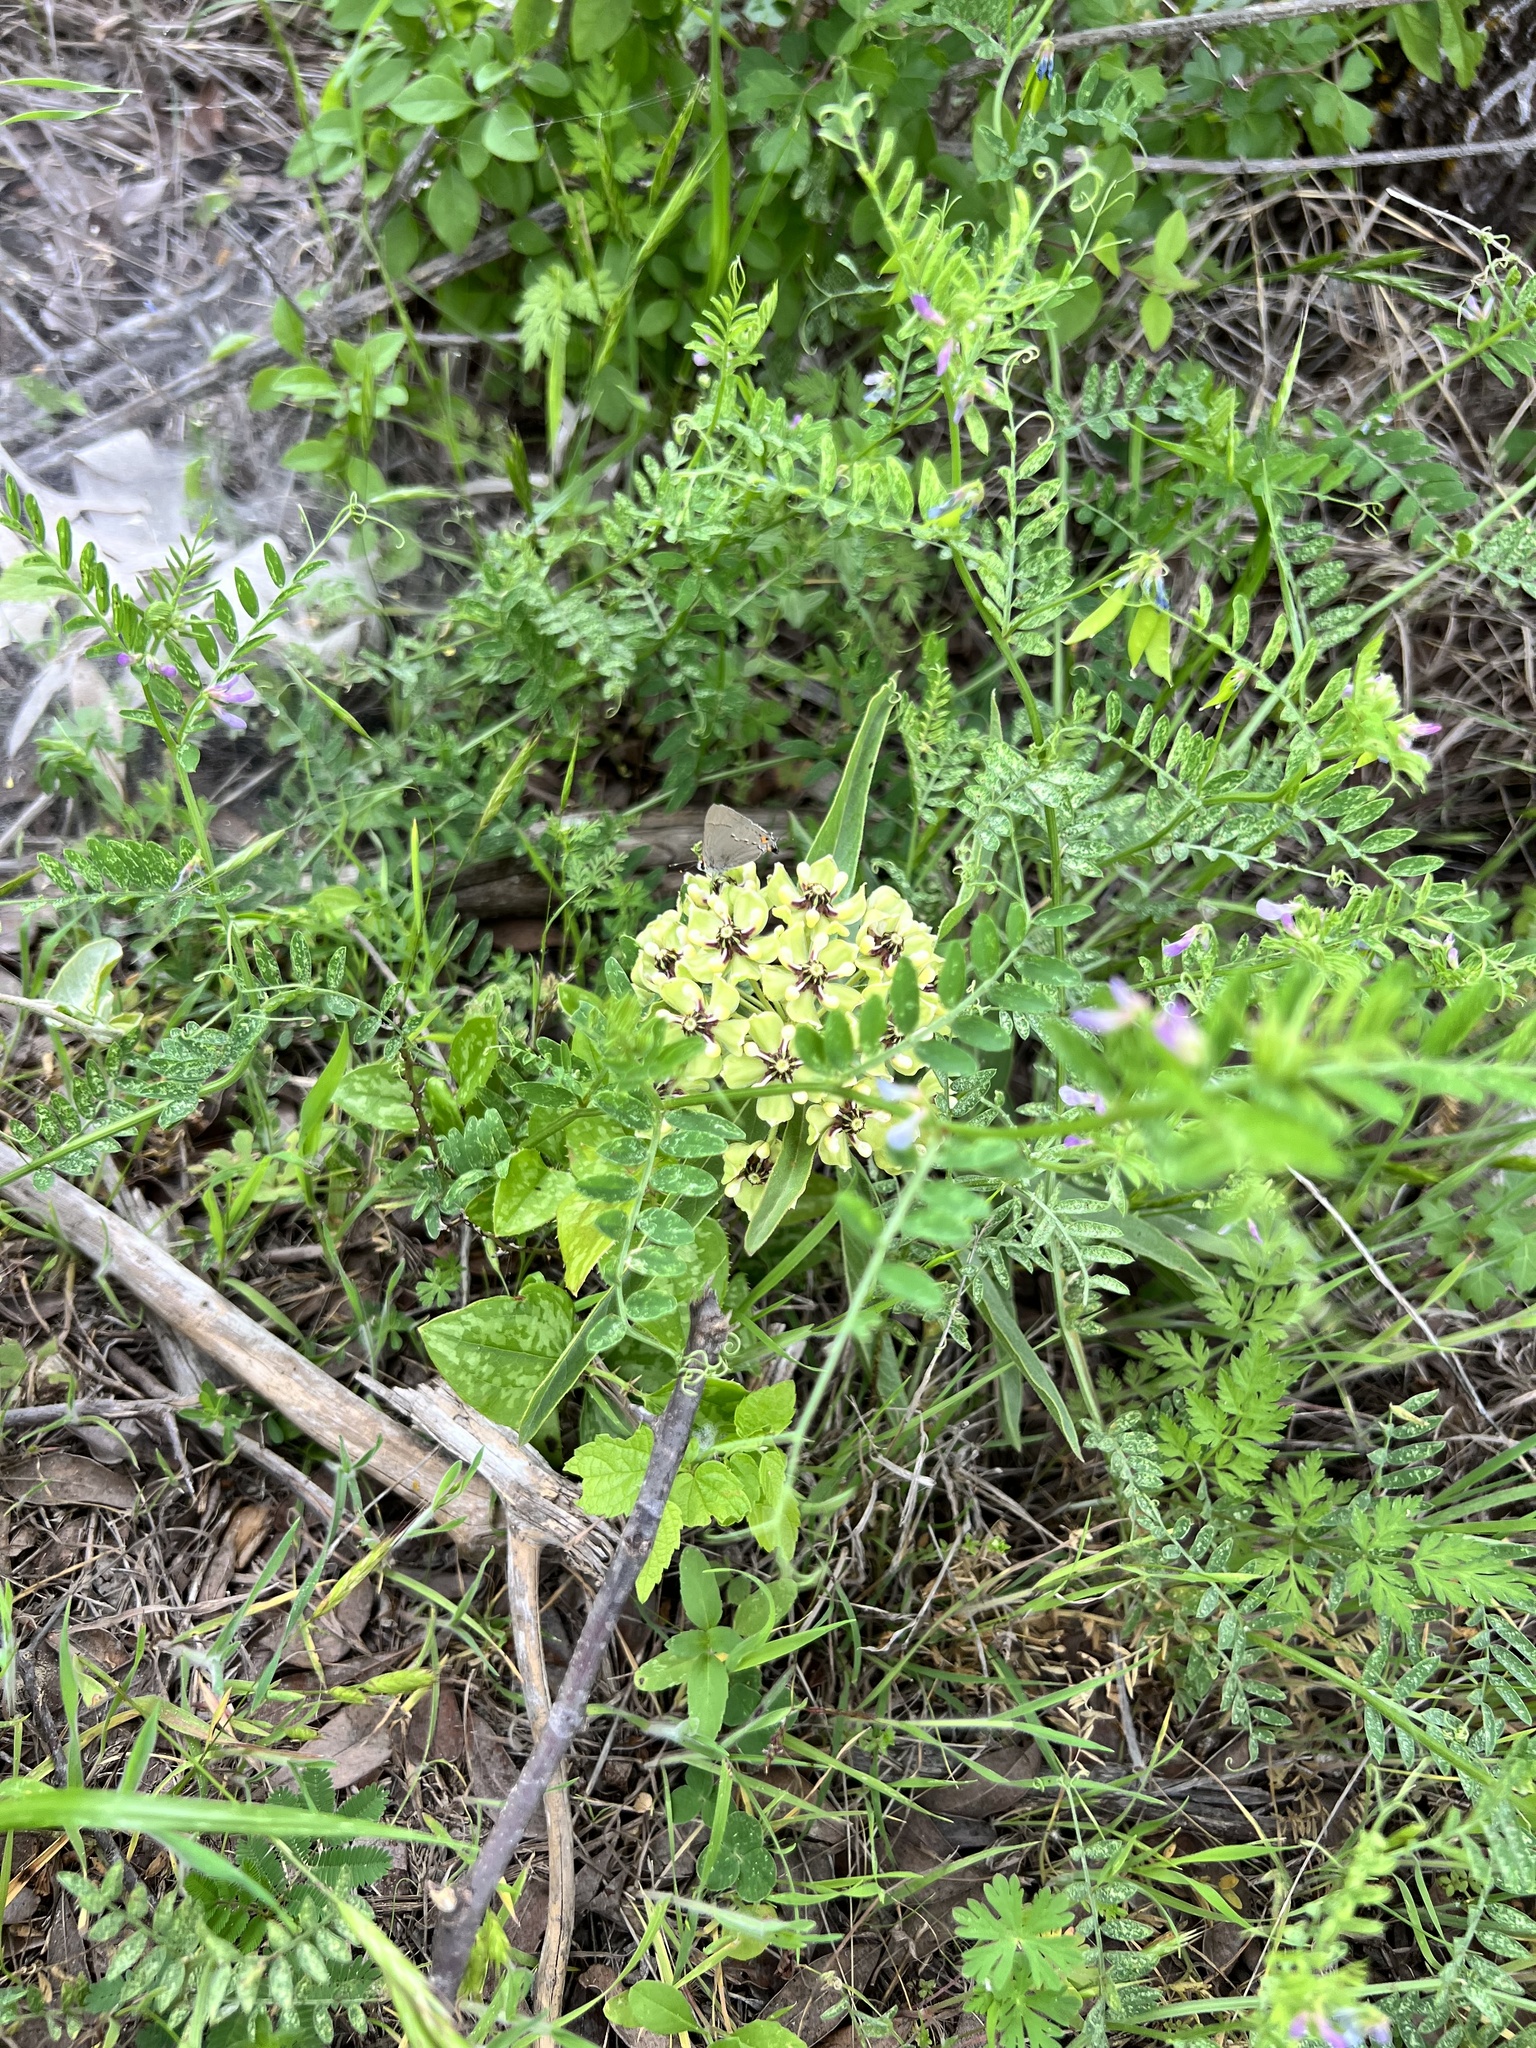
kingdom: Plantae
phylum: Tracheophyta
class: Magnoliopsida
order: Gentianales
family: Apocynaceae
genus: Asclepias
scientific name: Asclepias asperula
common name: Antelope horns
